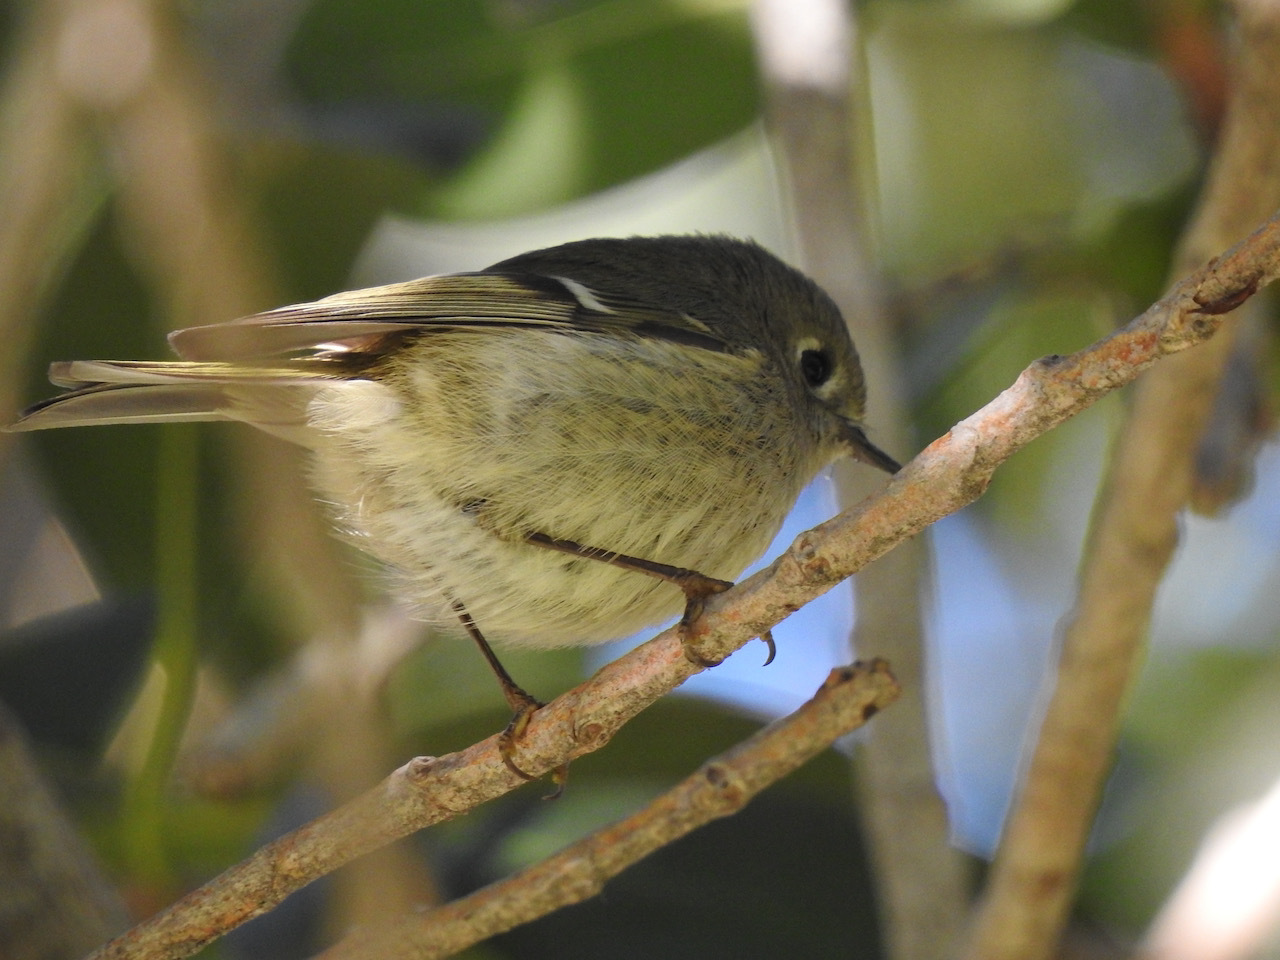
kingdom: Animalia
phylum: Chordata
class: Aves
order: Passeriformes
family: Regulidae
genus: Regulus
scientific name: Regulus calendula
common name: Ruby-crowned kinglet
